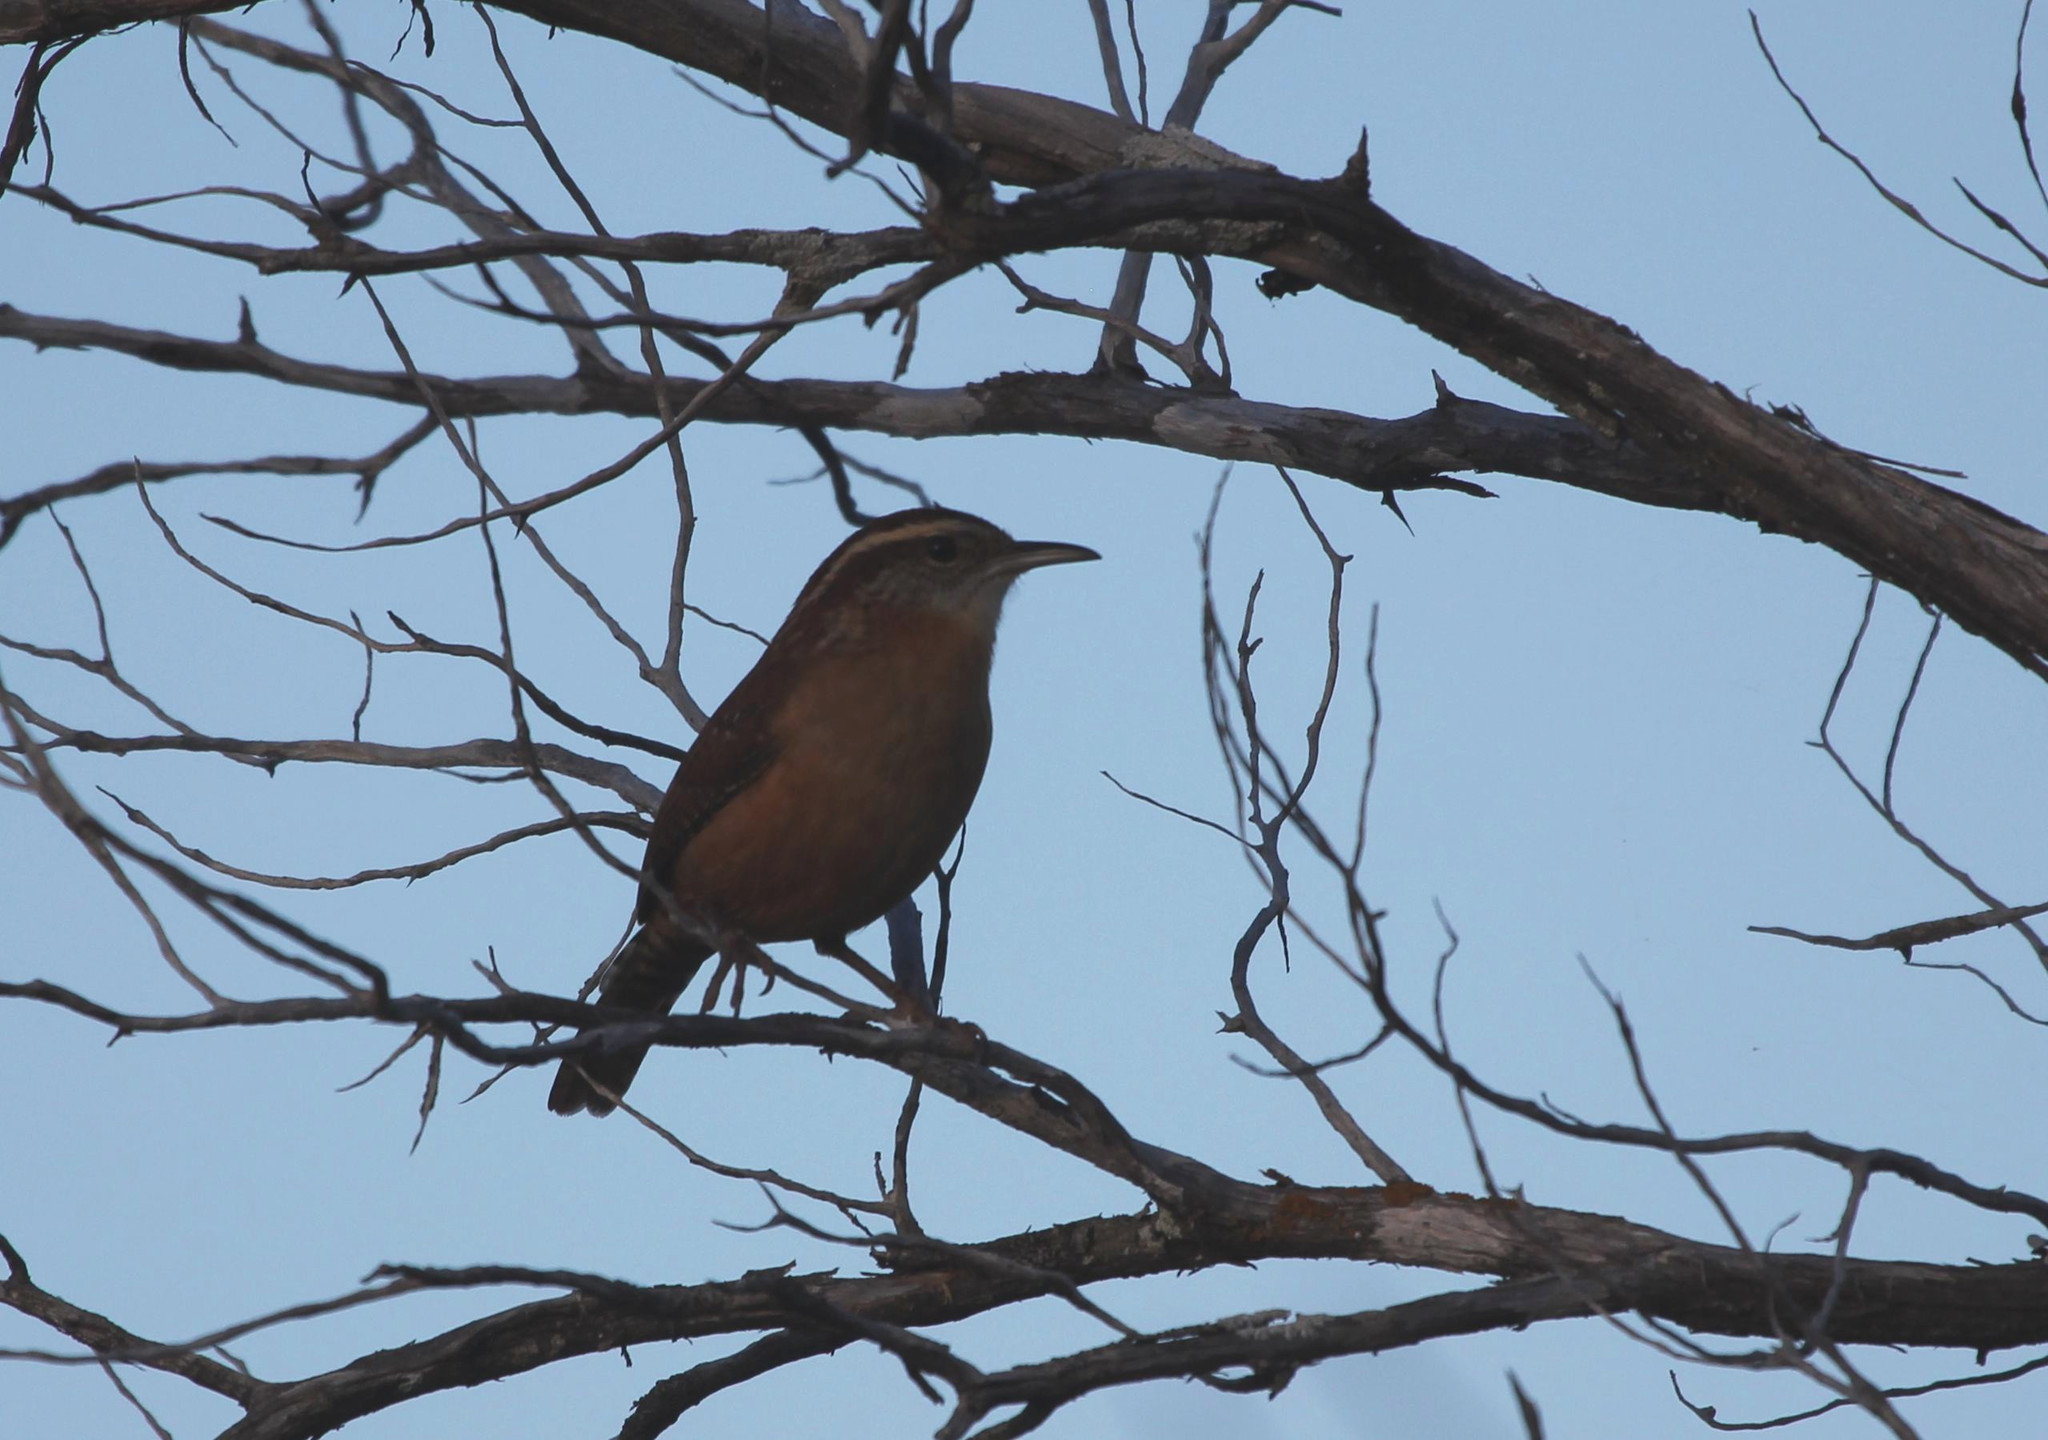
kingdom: Animalia
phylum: Chordata
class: Aves
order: Passeriformes
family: Troglodytidae
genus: Thryothorus
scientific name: Thryothorus ludovicianus
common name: Carolina wren
